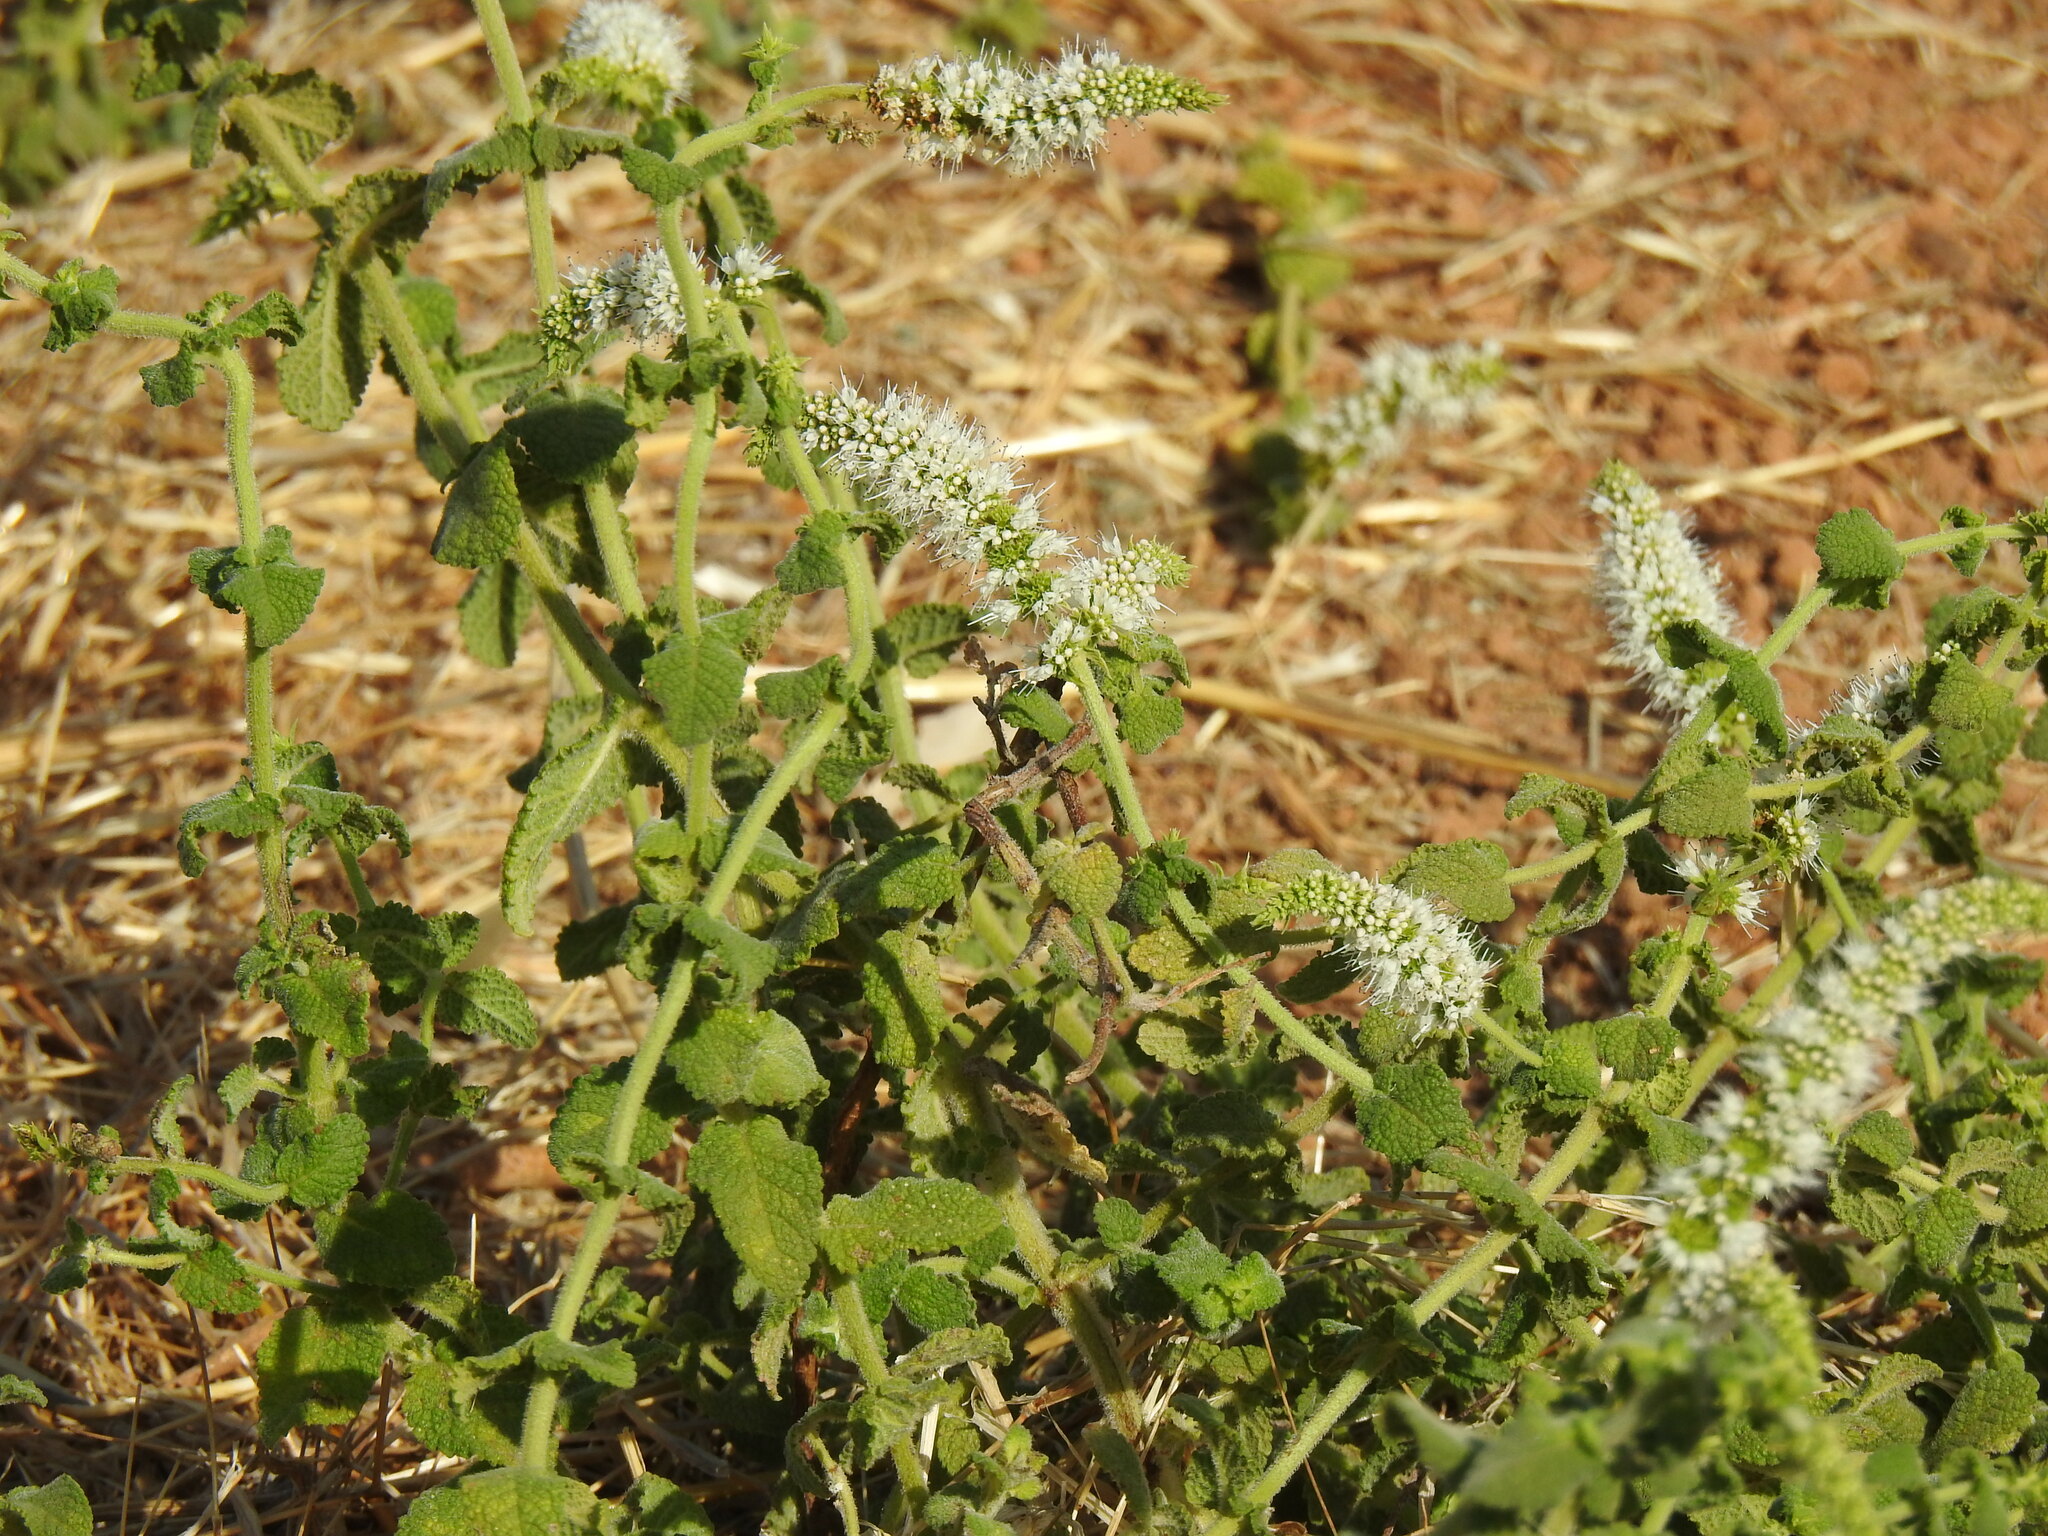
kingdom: Plantae
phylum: Tracheophyta
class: Magnoliopsida
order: Lamiales
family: Lamiaceae
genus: Mentha
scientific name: Mentha suaveolens
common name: Apple mint
